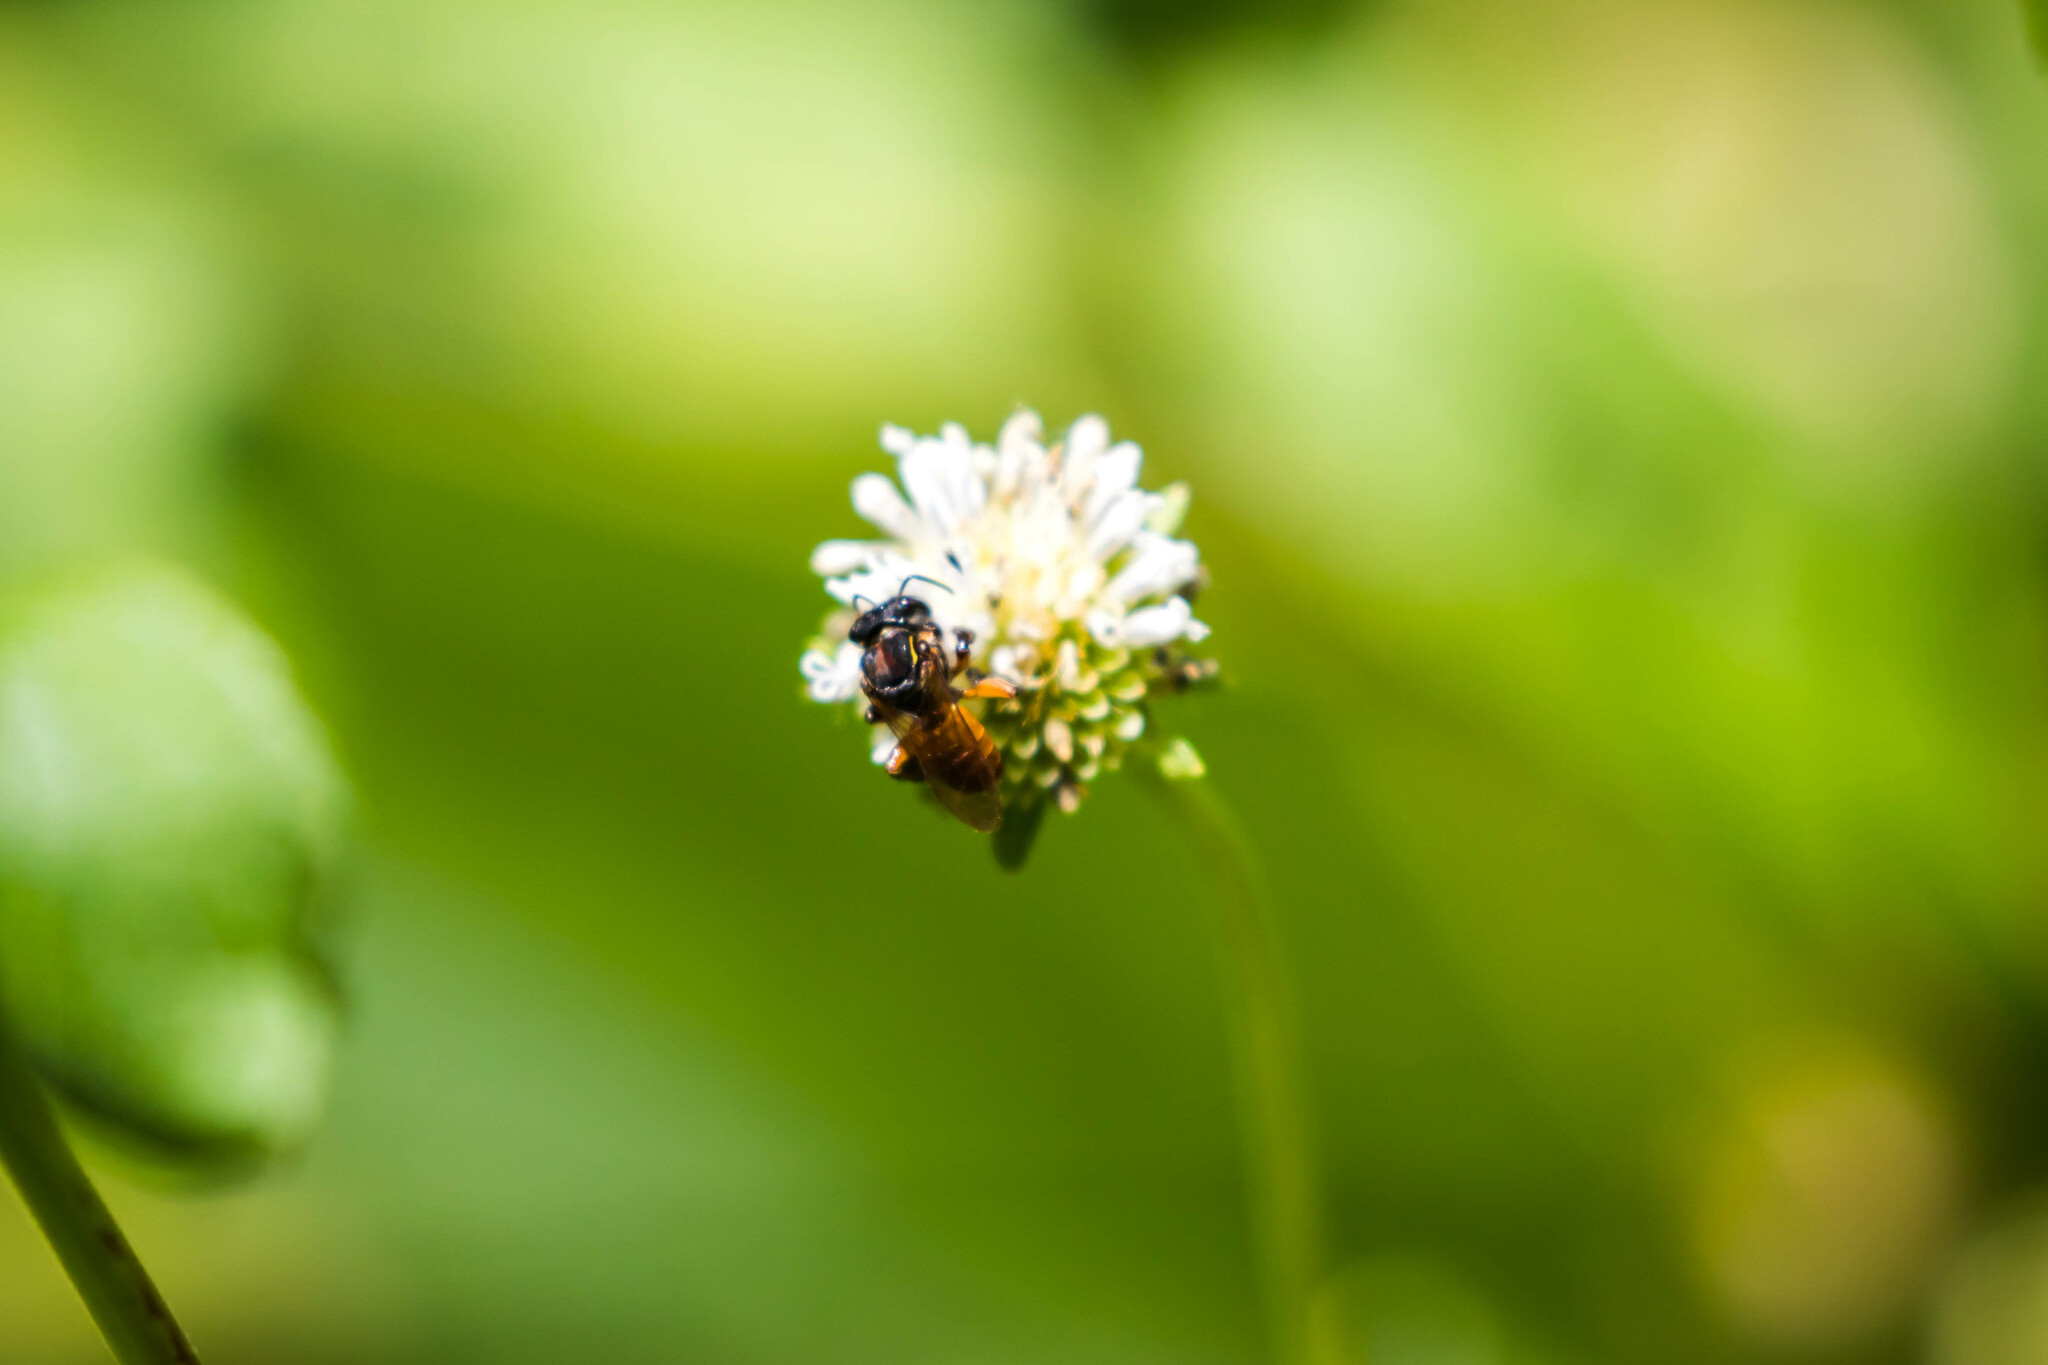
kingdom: Animalia
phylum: Arthropoda
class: Insecta
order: Hymenoptera
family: Apidae
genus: Cephalotrigona
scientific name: Cephalotrigona zexmeniae
